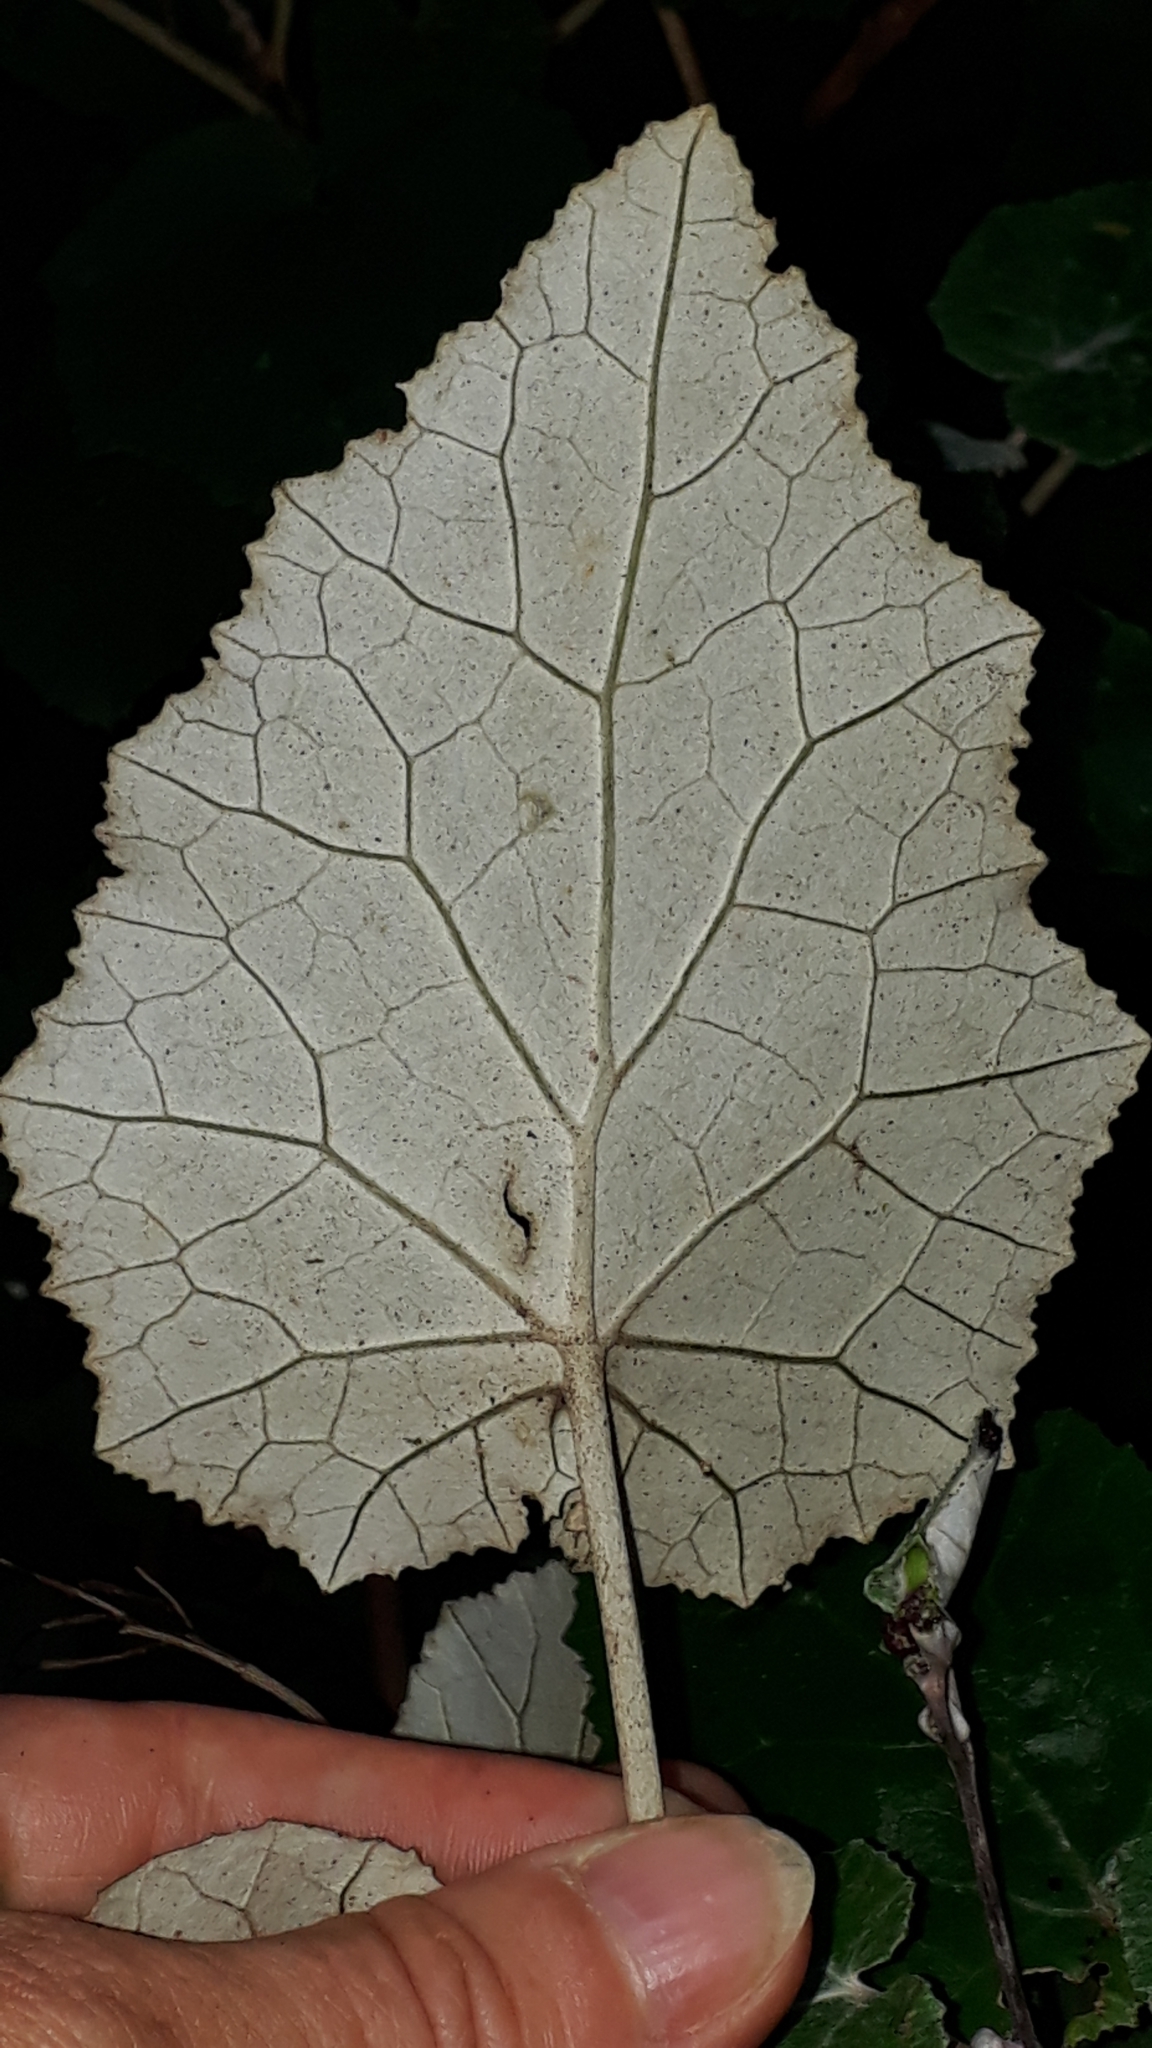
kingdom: Plantae
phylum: Tracheophyta
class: Magnoliopsida
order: Asterales
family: Asteraceae
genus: Pericallis
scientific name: Pericallis appendiculata
